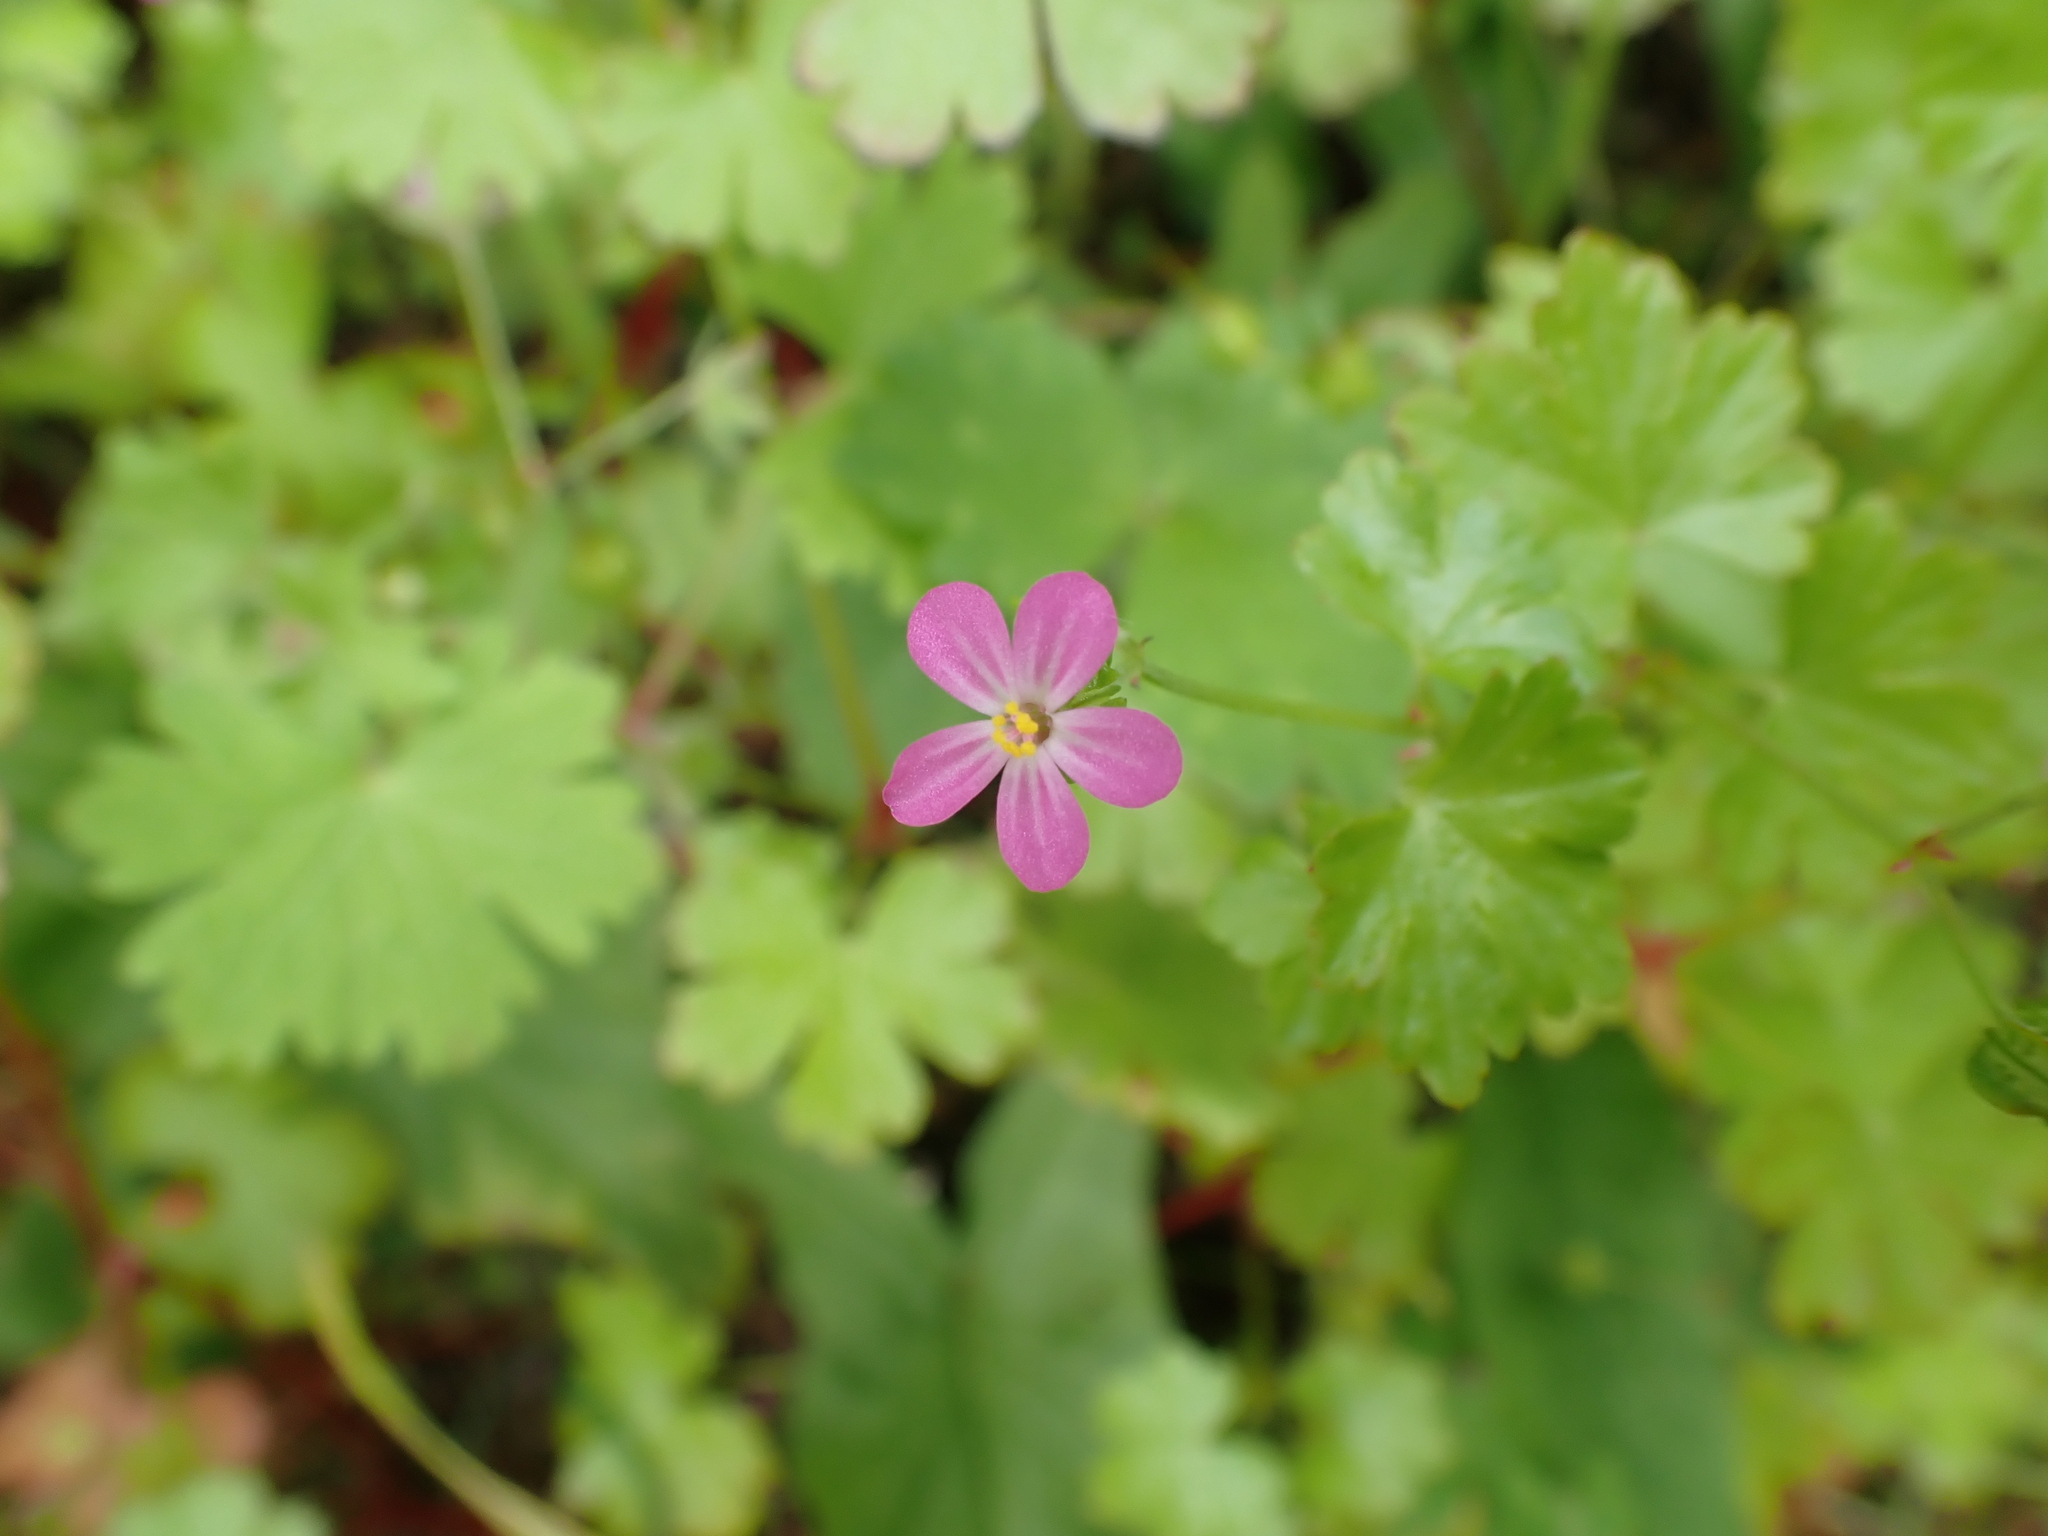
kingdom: Plantae
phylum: Tracheophyta
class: Magnoliopsida
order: Geraniales
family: Geraniaceae
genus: Geranium
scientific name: Geranium lucidum
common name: Shining crane's-bill
